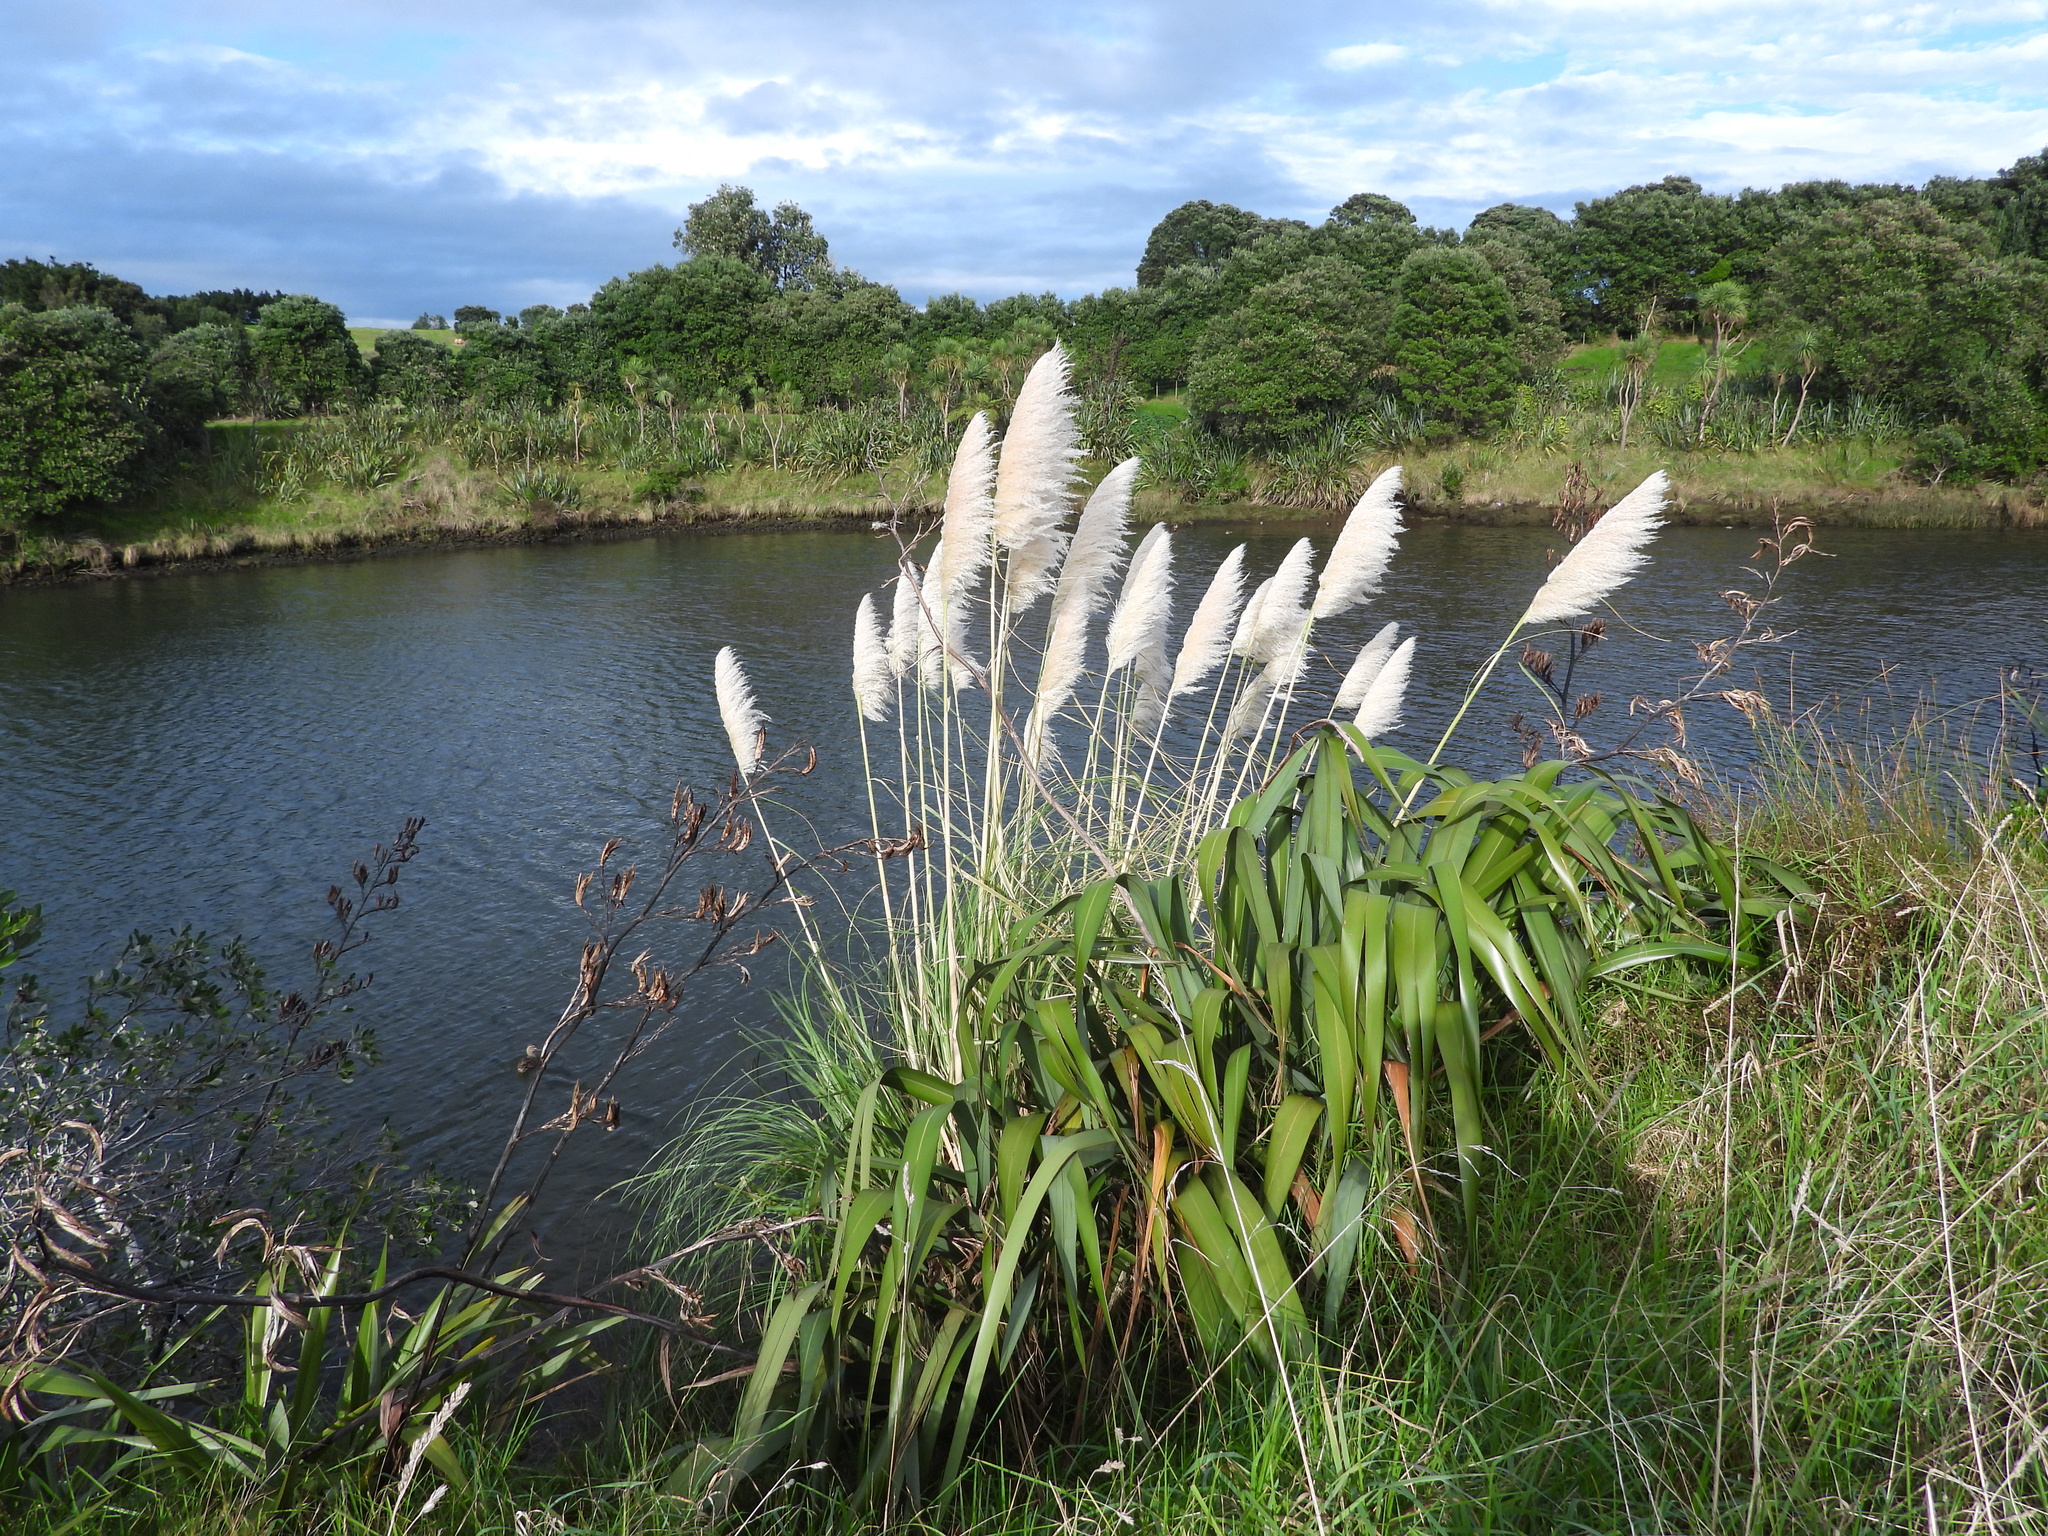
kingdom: Plantae
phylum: Tracheophyta
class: Liliopsida
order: Poales
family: Poaceae
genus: Cortaderia
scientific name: Cortaderia selloana
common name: Uruguayan pampas grass
